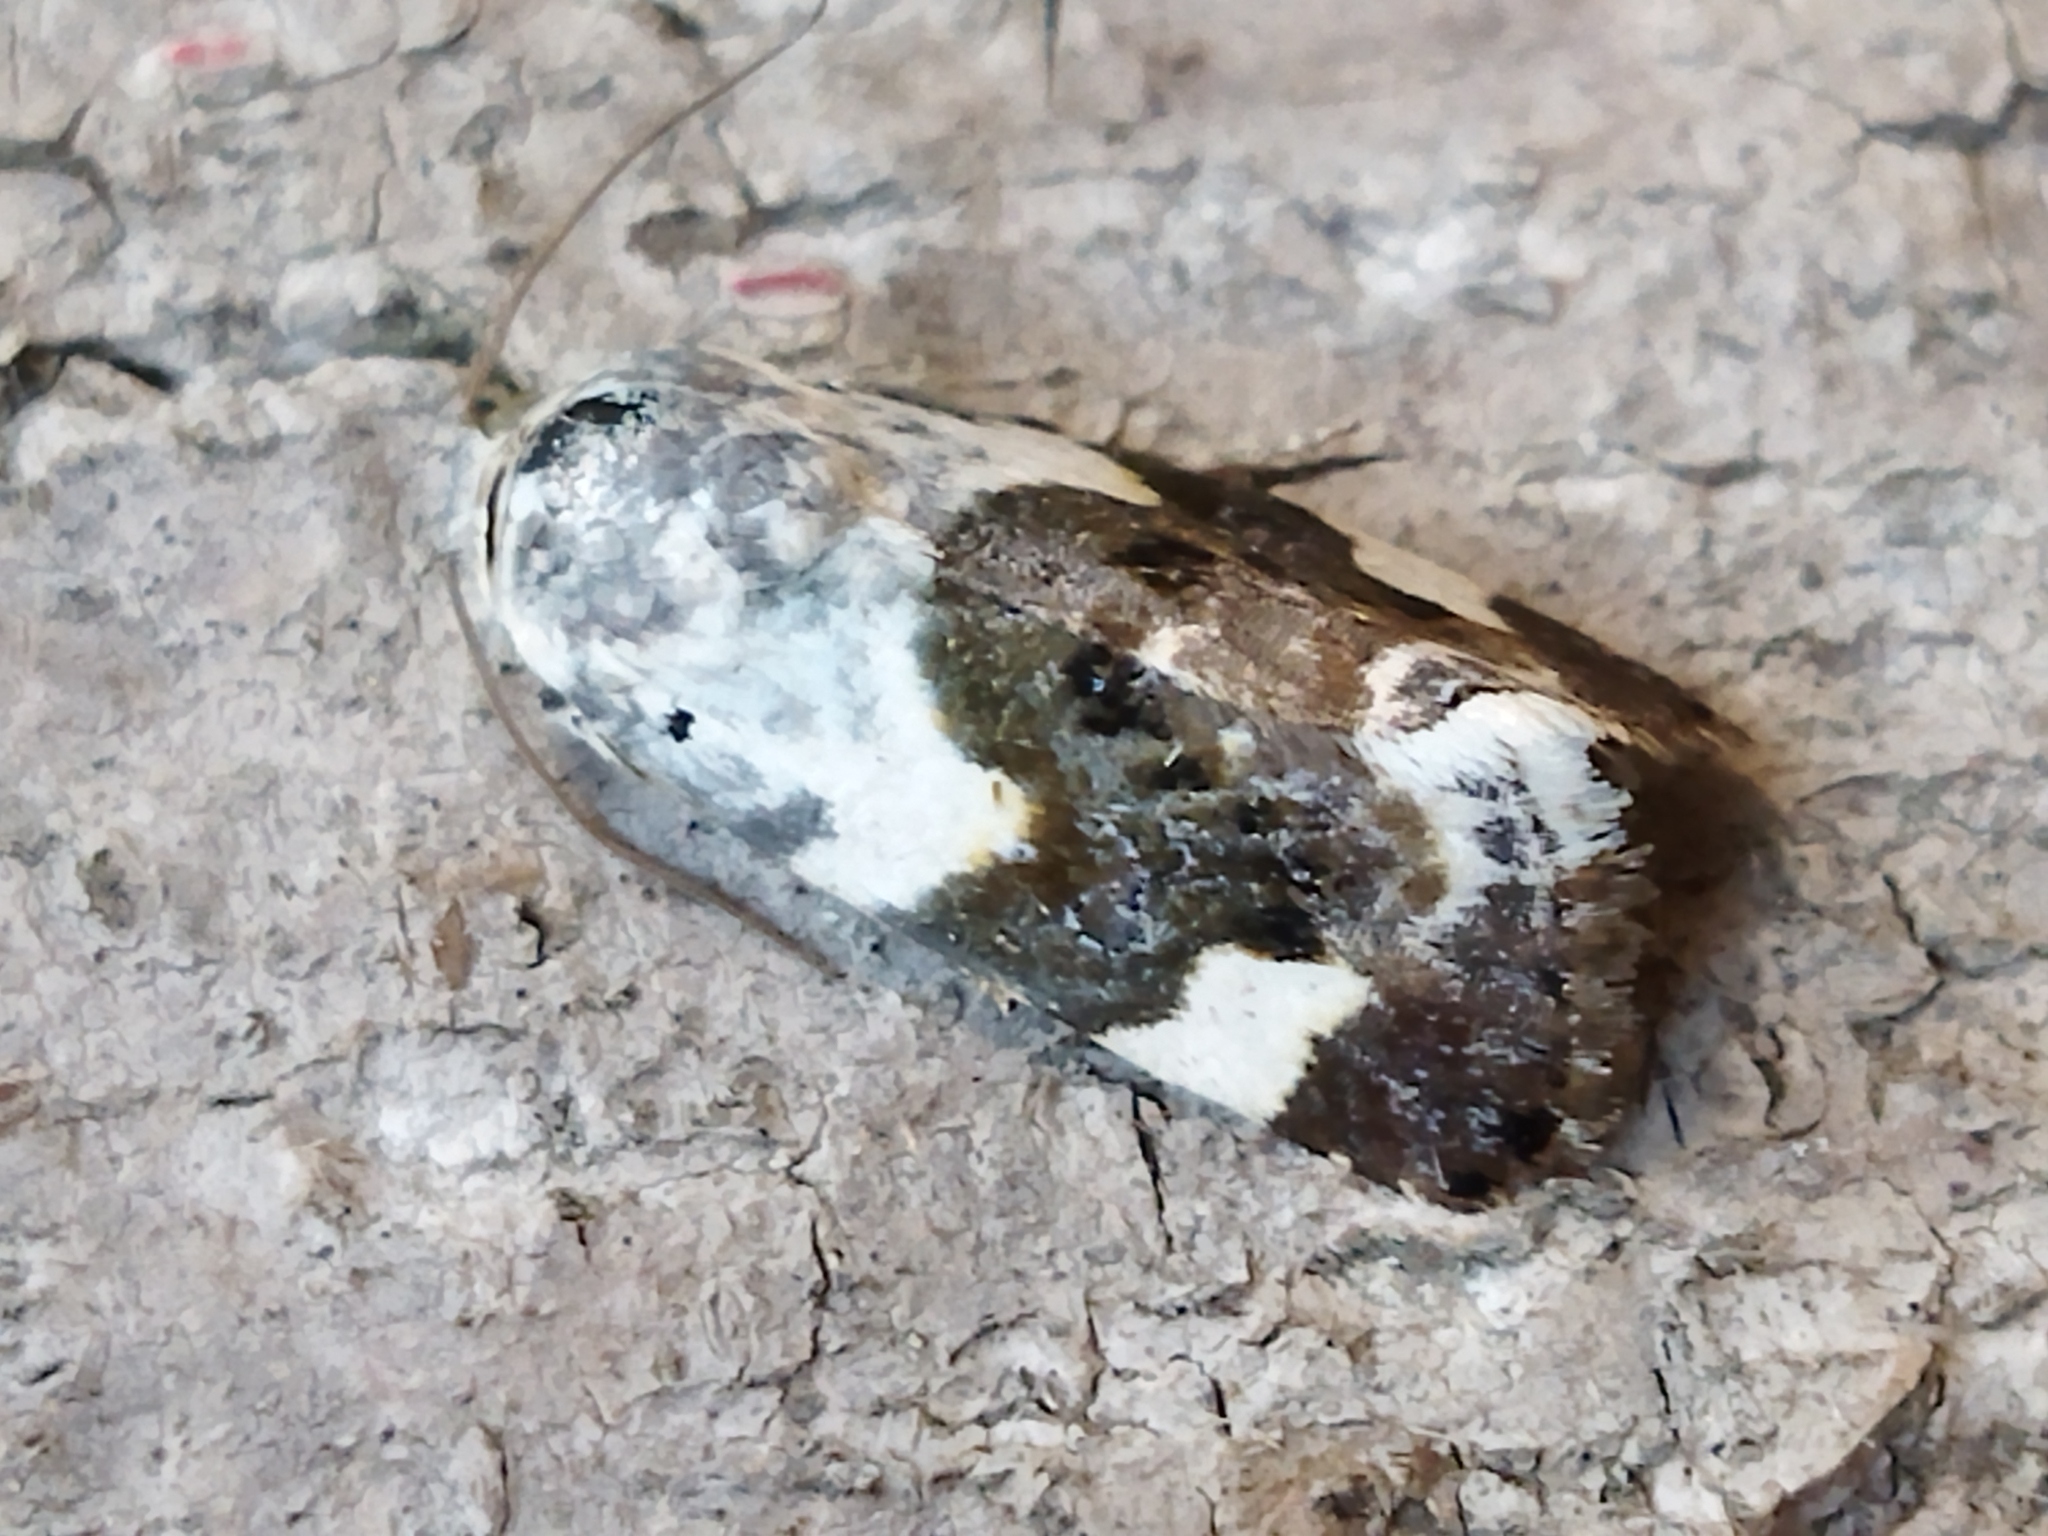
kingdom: Animalia
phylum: Arthropoda
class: Insecta
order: Lepidoptera
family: Noctuidae
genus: Acontia
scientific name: Acontia lucida
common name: Pale shoulder
